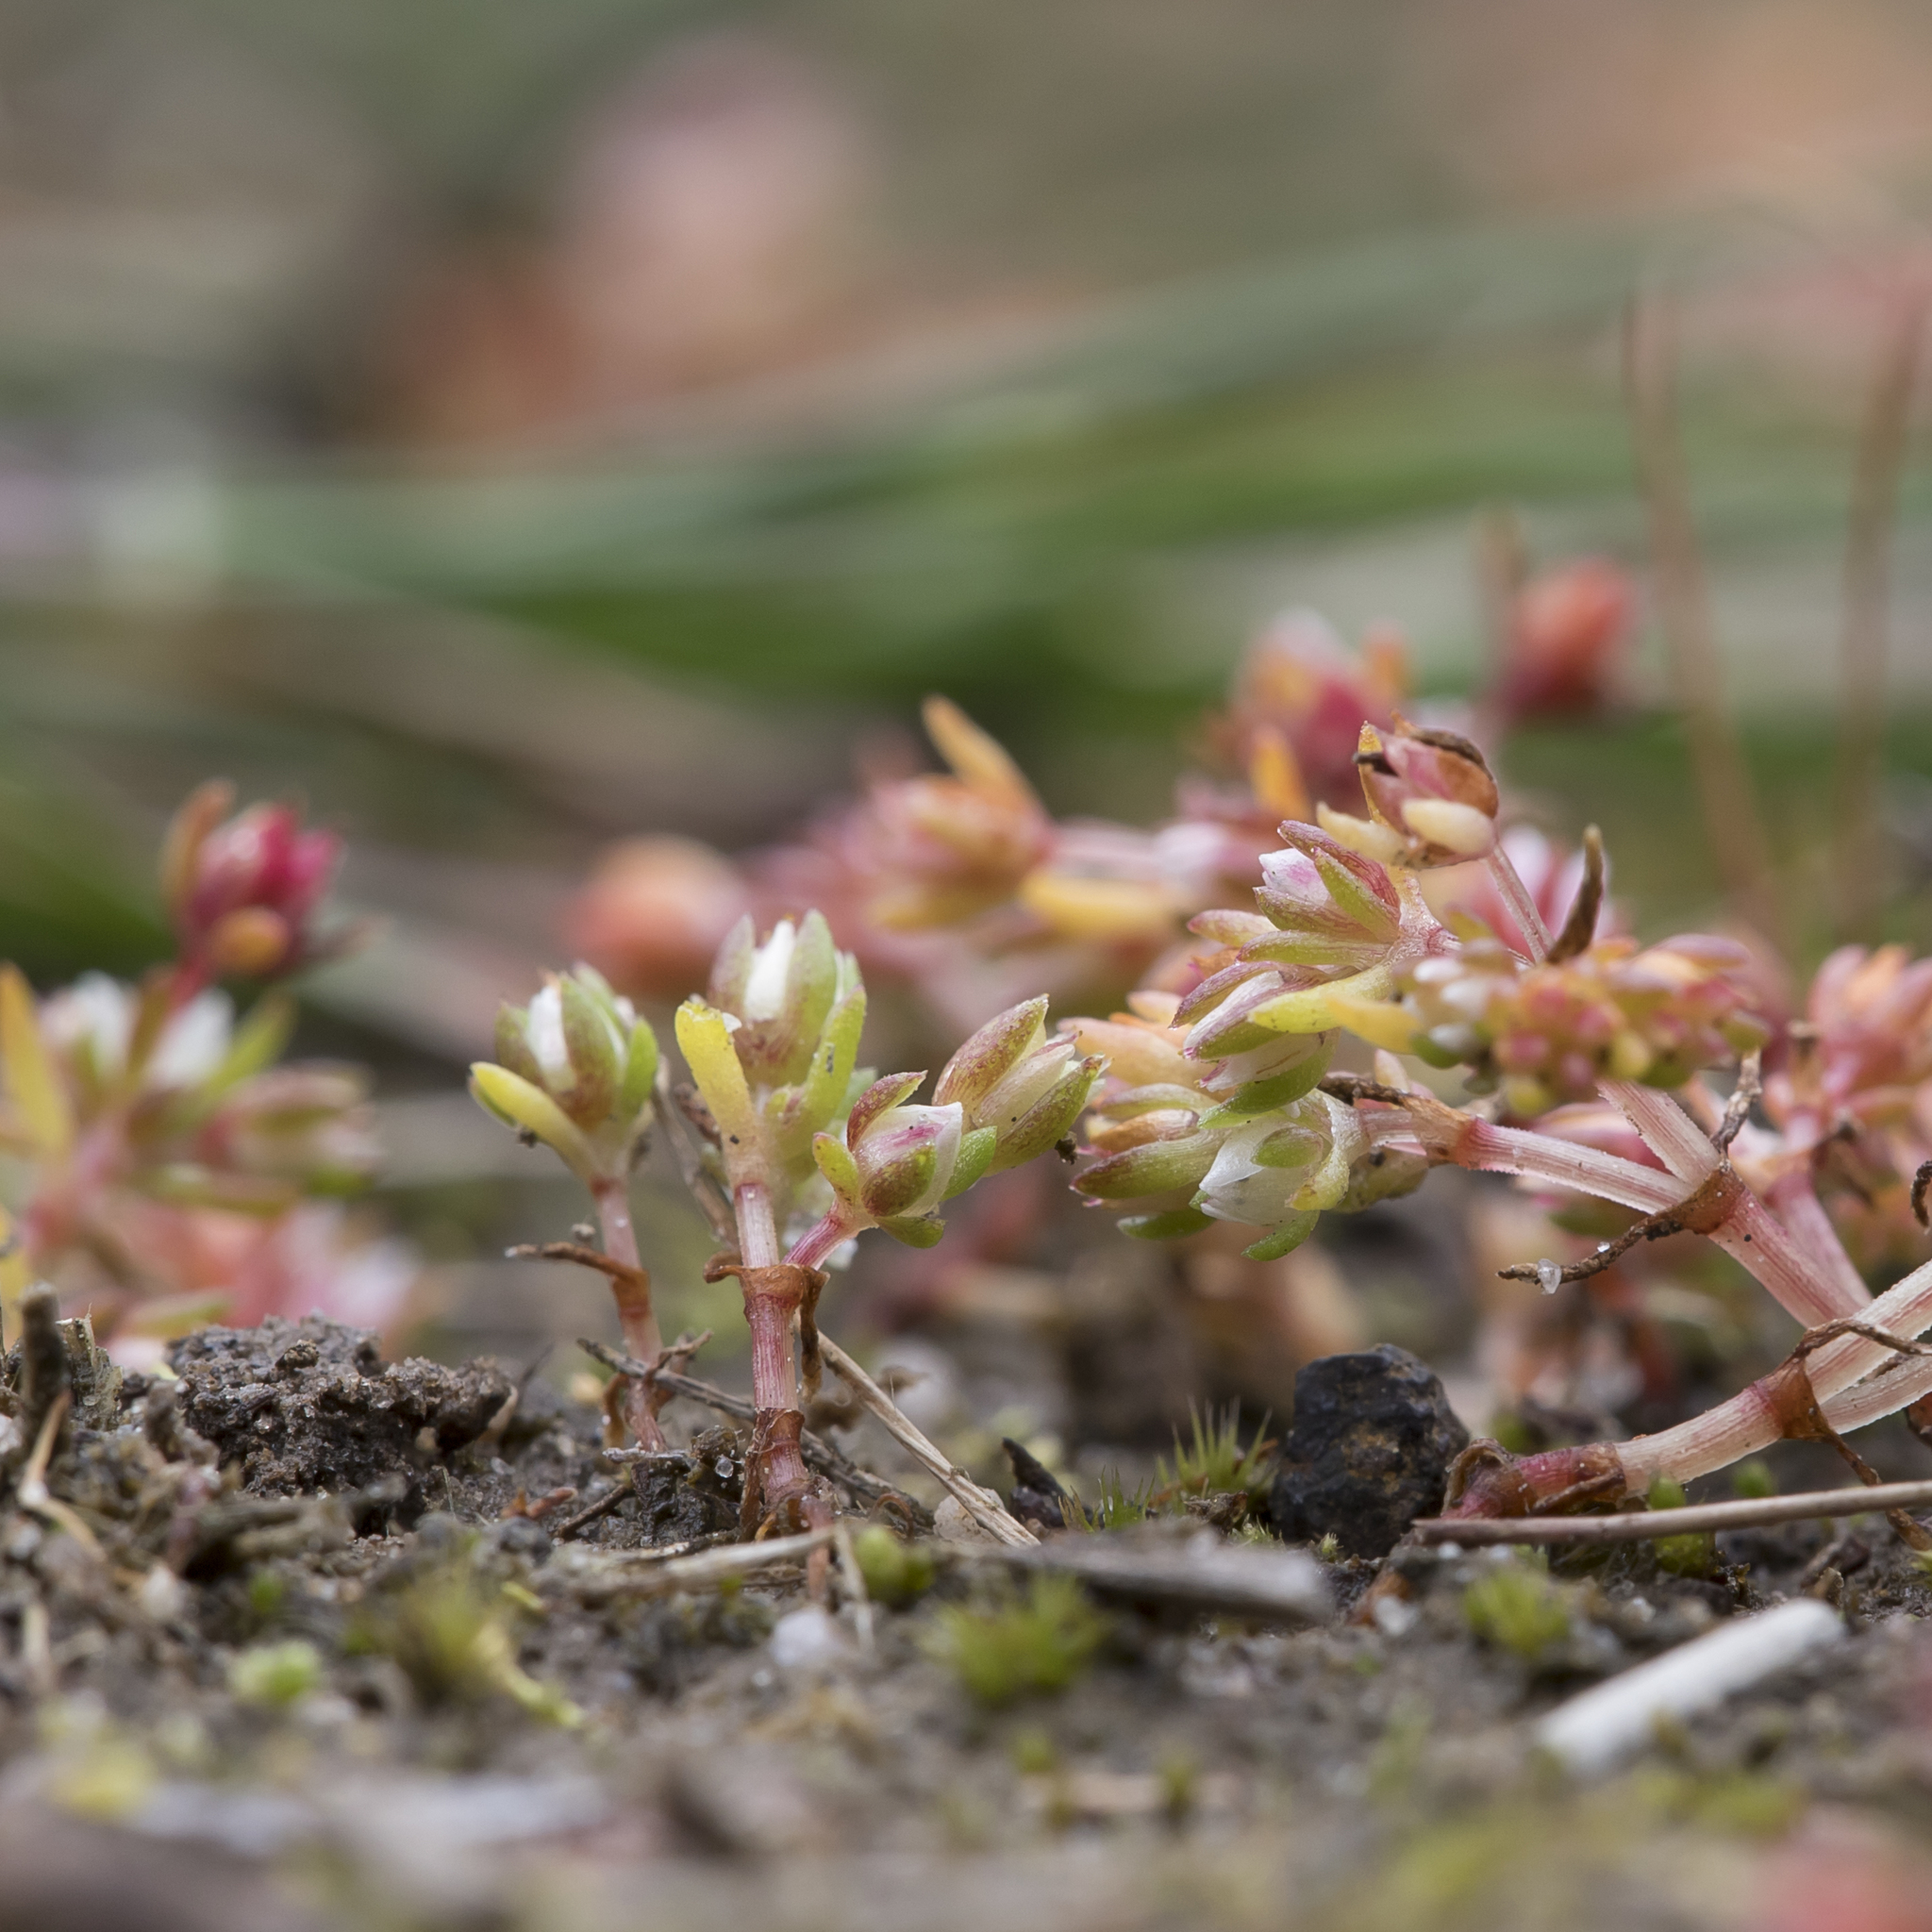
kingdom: Plantae
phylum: Tracheophyta
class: Magnoliopsida
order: Saxifragales
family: Crassulaceae
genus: Crassula
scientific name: Crassula decumbens
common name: Scilly pigmyweed
